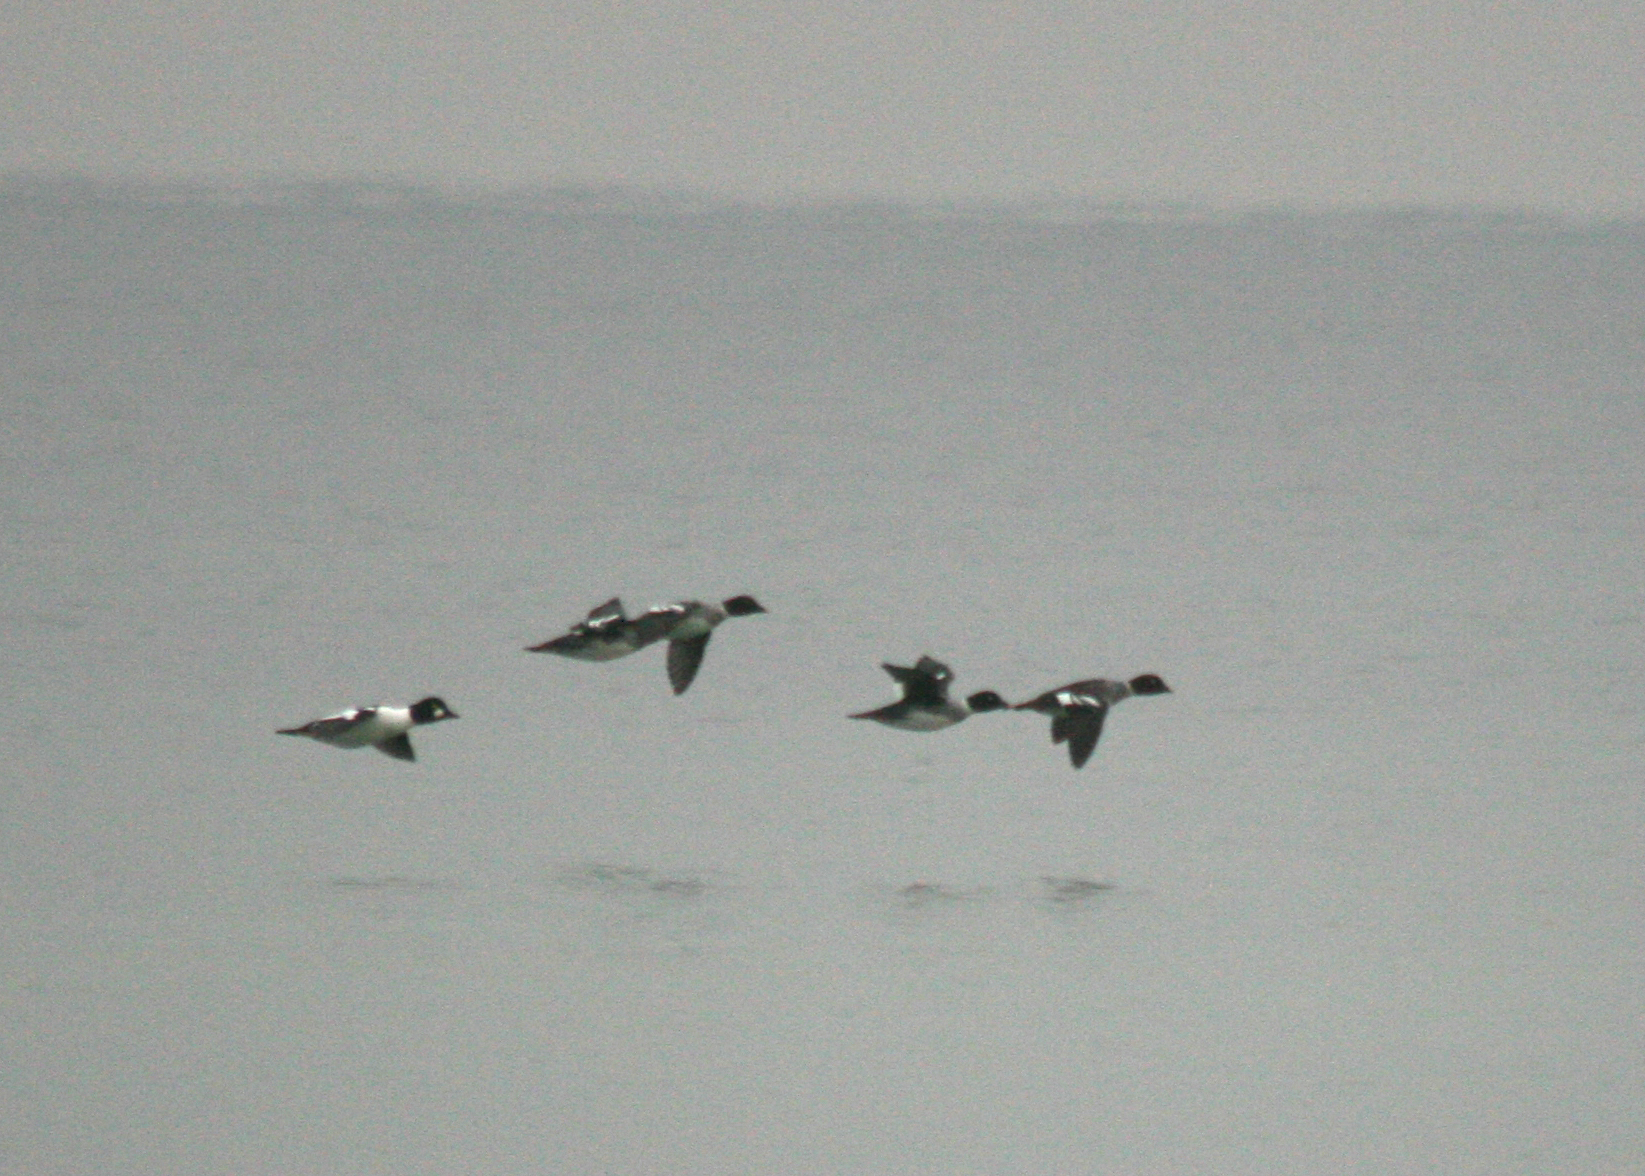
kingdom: Animalia
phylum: Chordata
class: Aves
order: Anseriformes
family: Anatidae
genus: Bucephala
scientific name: Bucephala clangula
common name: Common goldeneye
